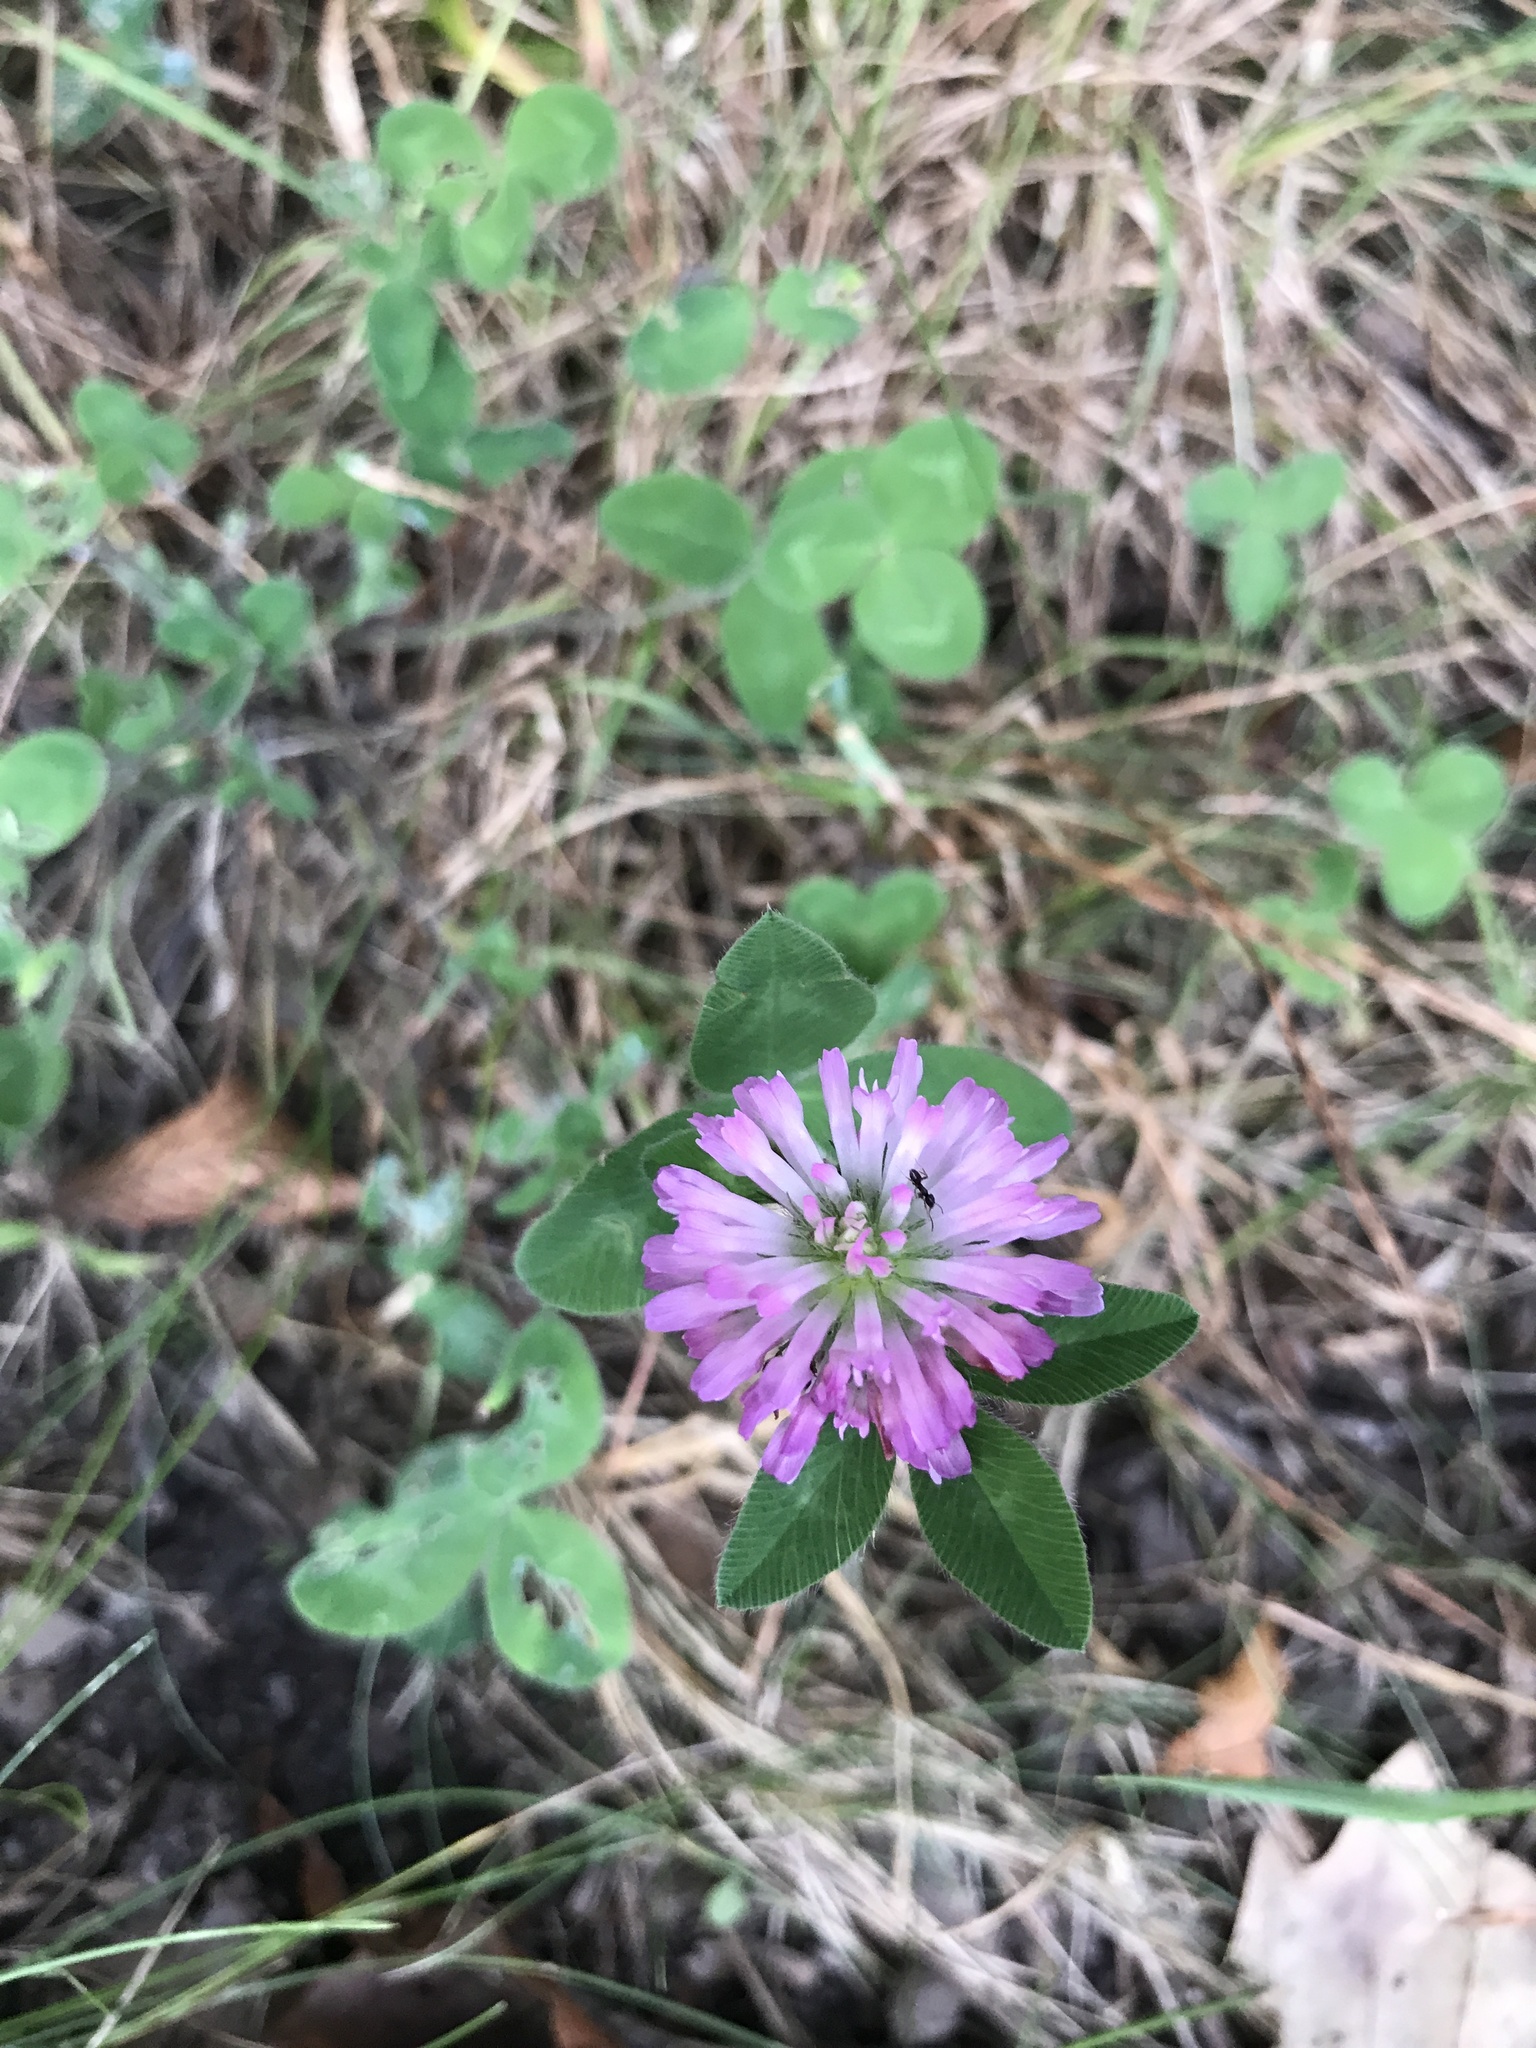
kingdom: Plantae
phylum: Tracheophyta
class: Magnoliopsida
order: Fabales
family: Fabaceae
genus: Trifolium
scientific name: Trifolium pratense
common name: Red clover
